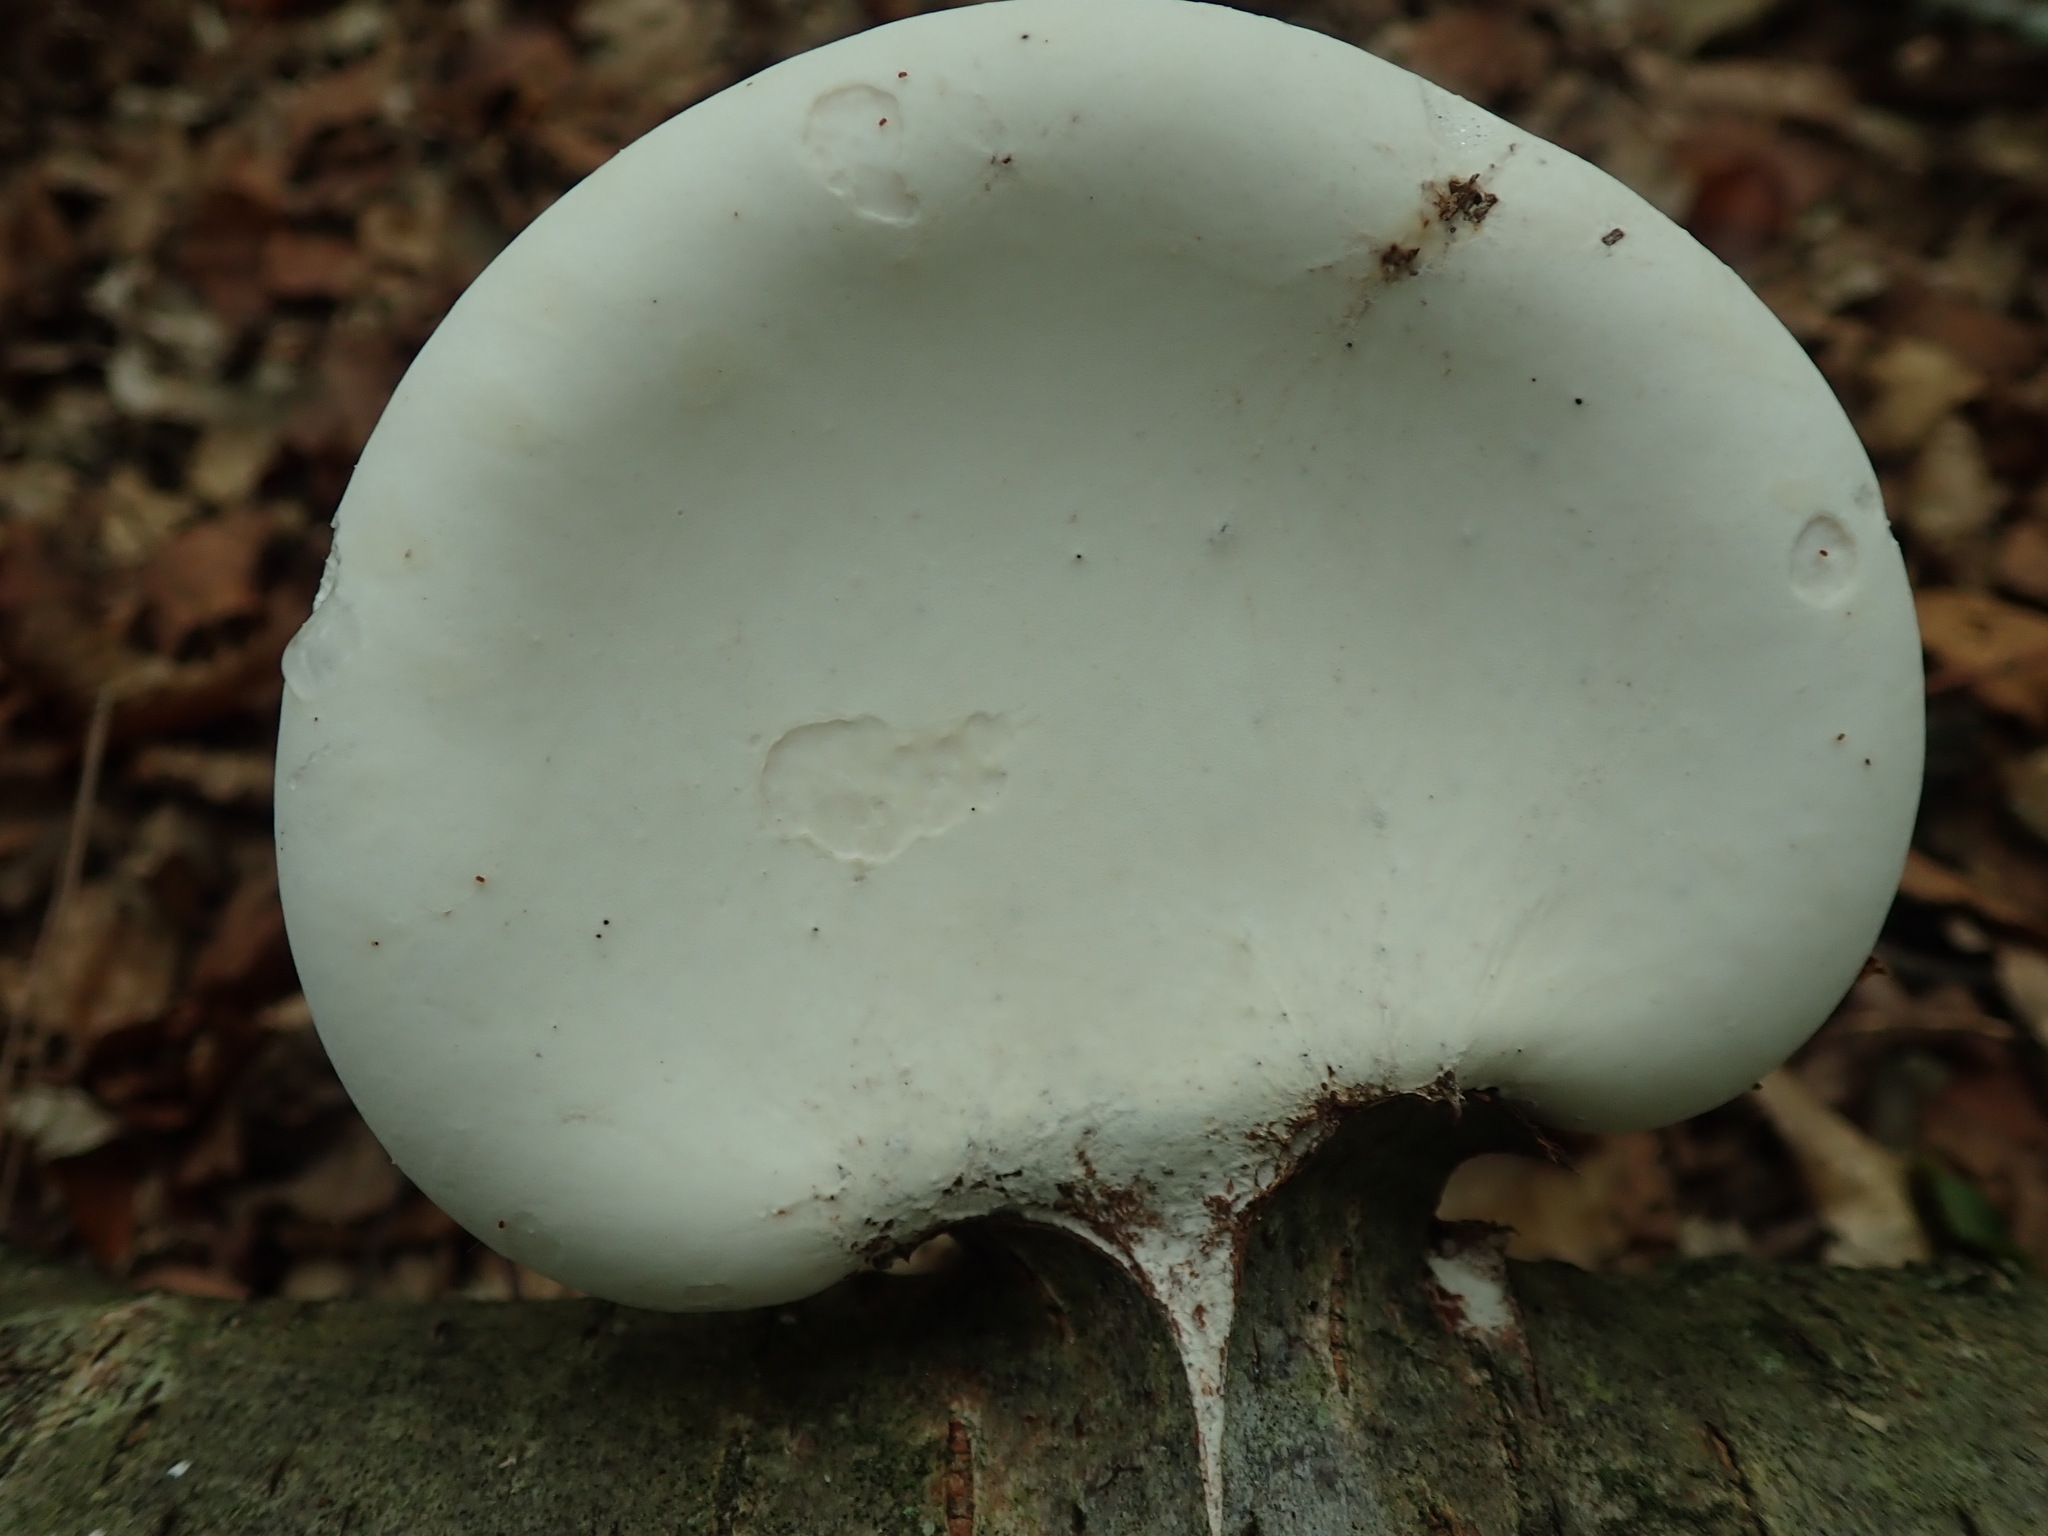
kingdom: Fungi
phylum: Basidiomycota
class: Agaricomycetes
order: Polyporales
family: Fomitopsidaceae
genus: Fomitopsis
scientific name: Fomitopsis betulina
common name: Birch polypore
